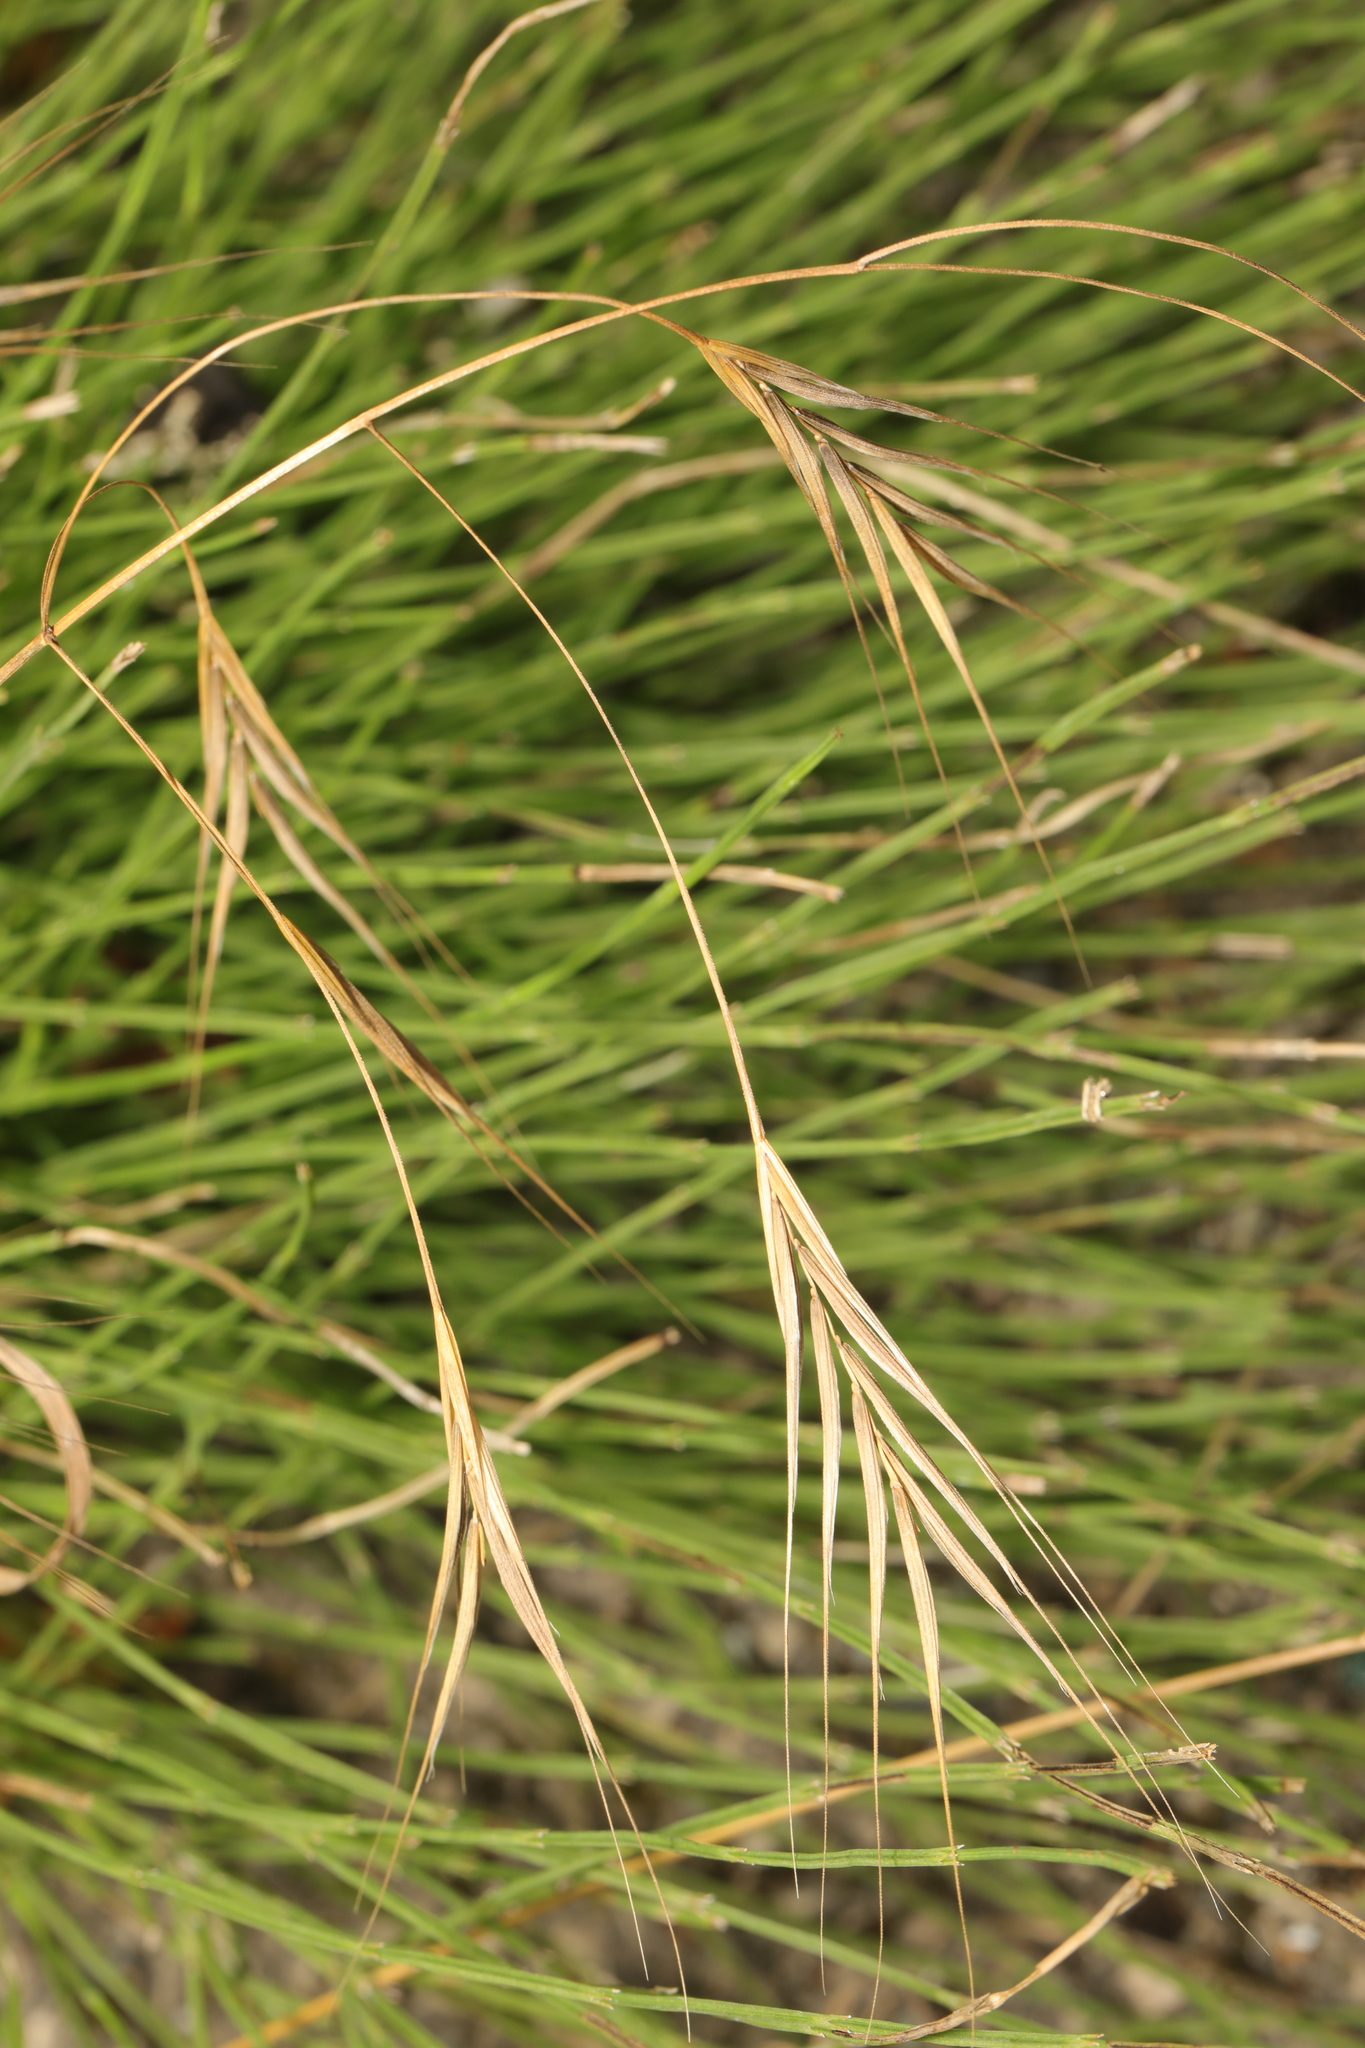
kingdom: Plantae
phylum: Tracheophyta
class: Liliopsida
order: Poales
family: Poaceae
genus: Bromus
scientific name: Bromus sterilis
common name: Poverty brome
